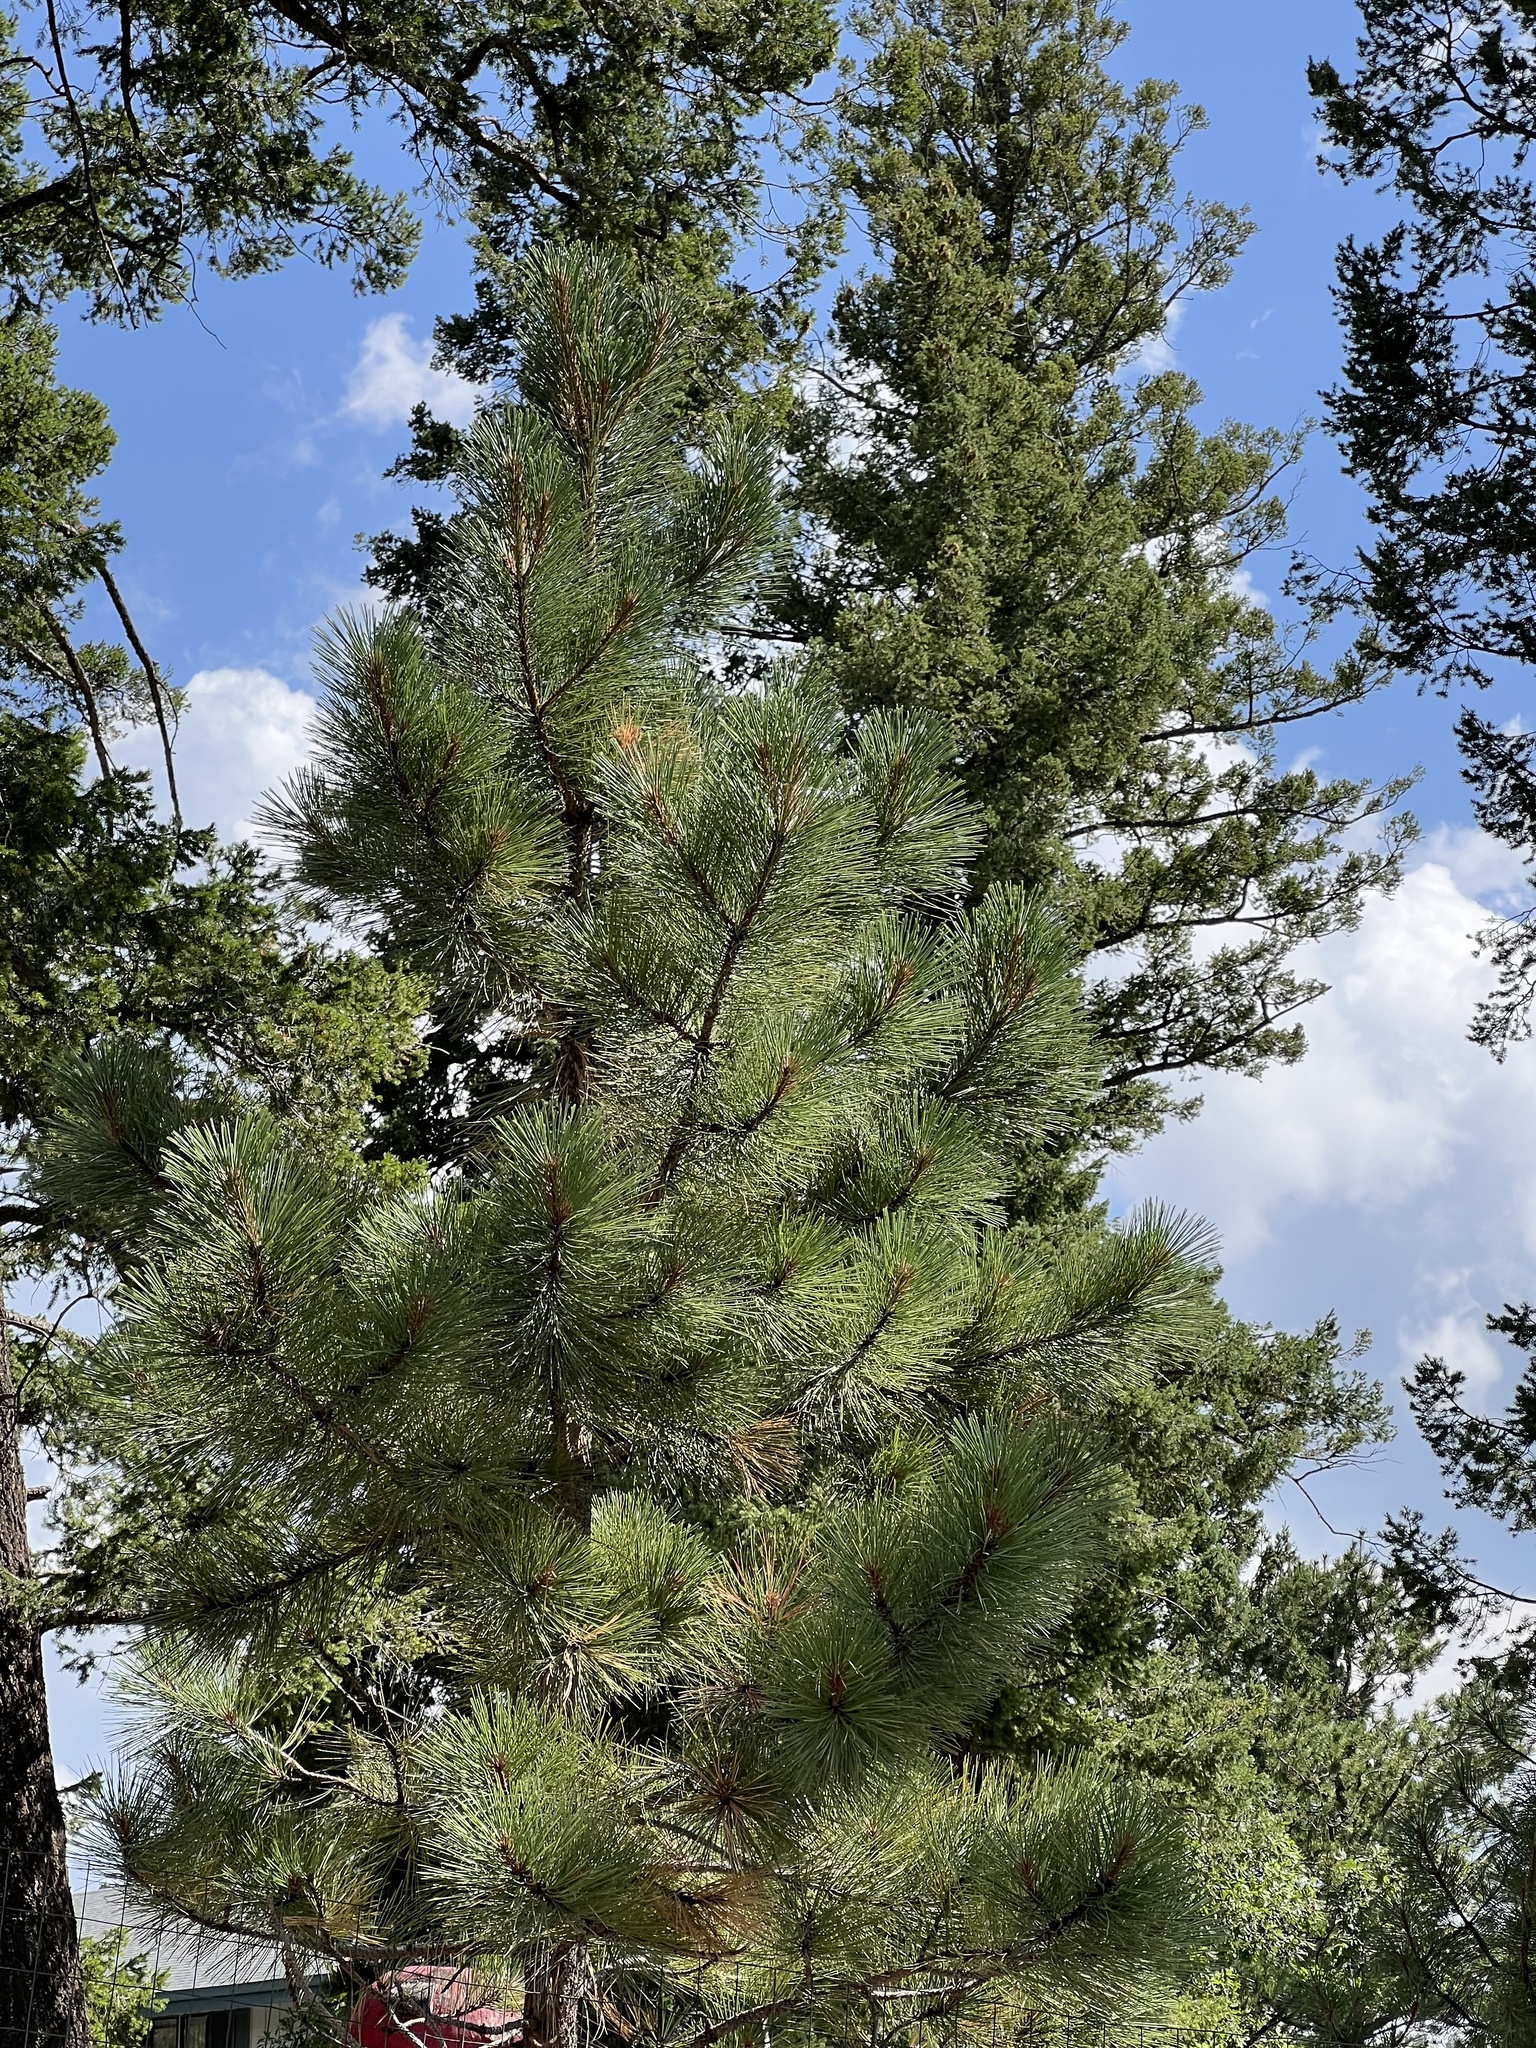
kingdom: Plantae
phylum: Tracheophyta
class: Pinopsida
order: Pinales
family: Pinaceae
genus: Pinus
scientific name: Pinus ponderosa
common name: Western yellow-pine
